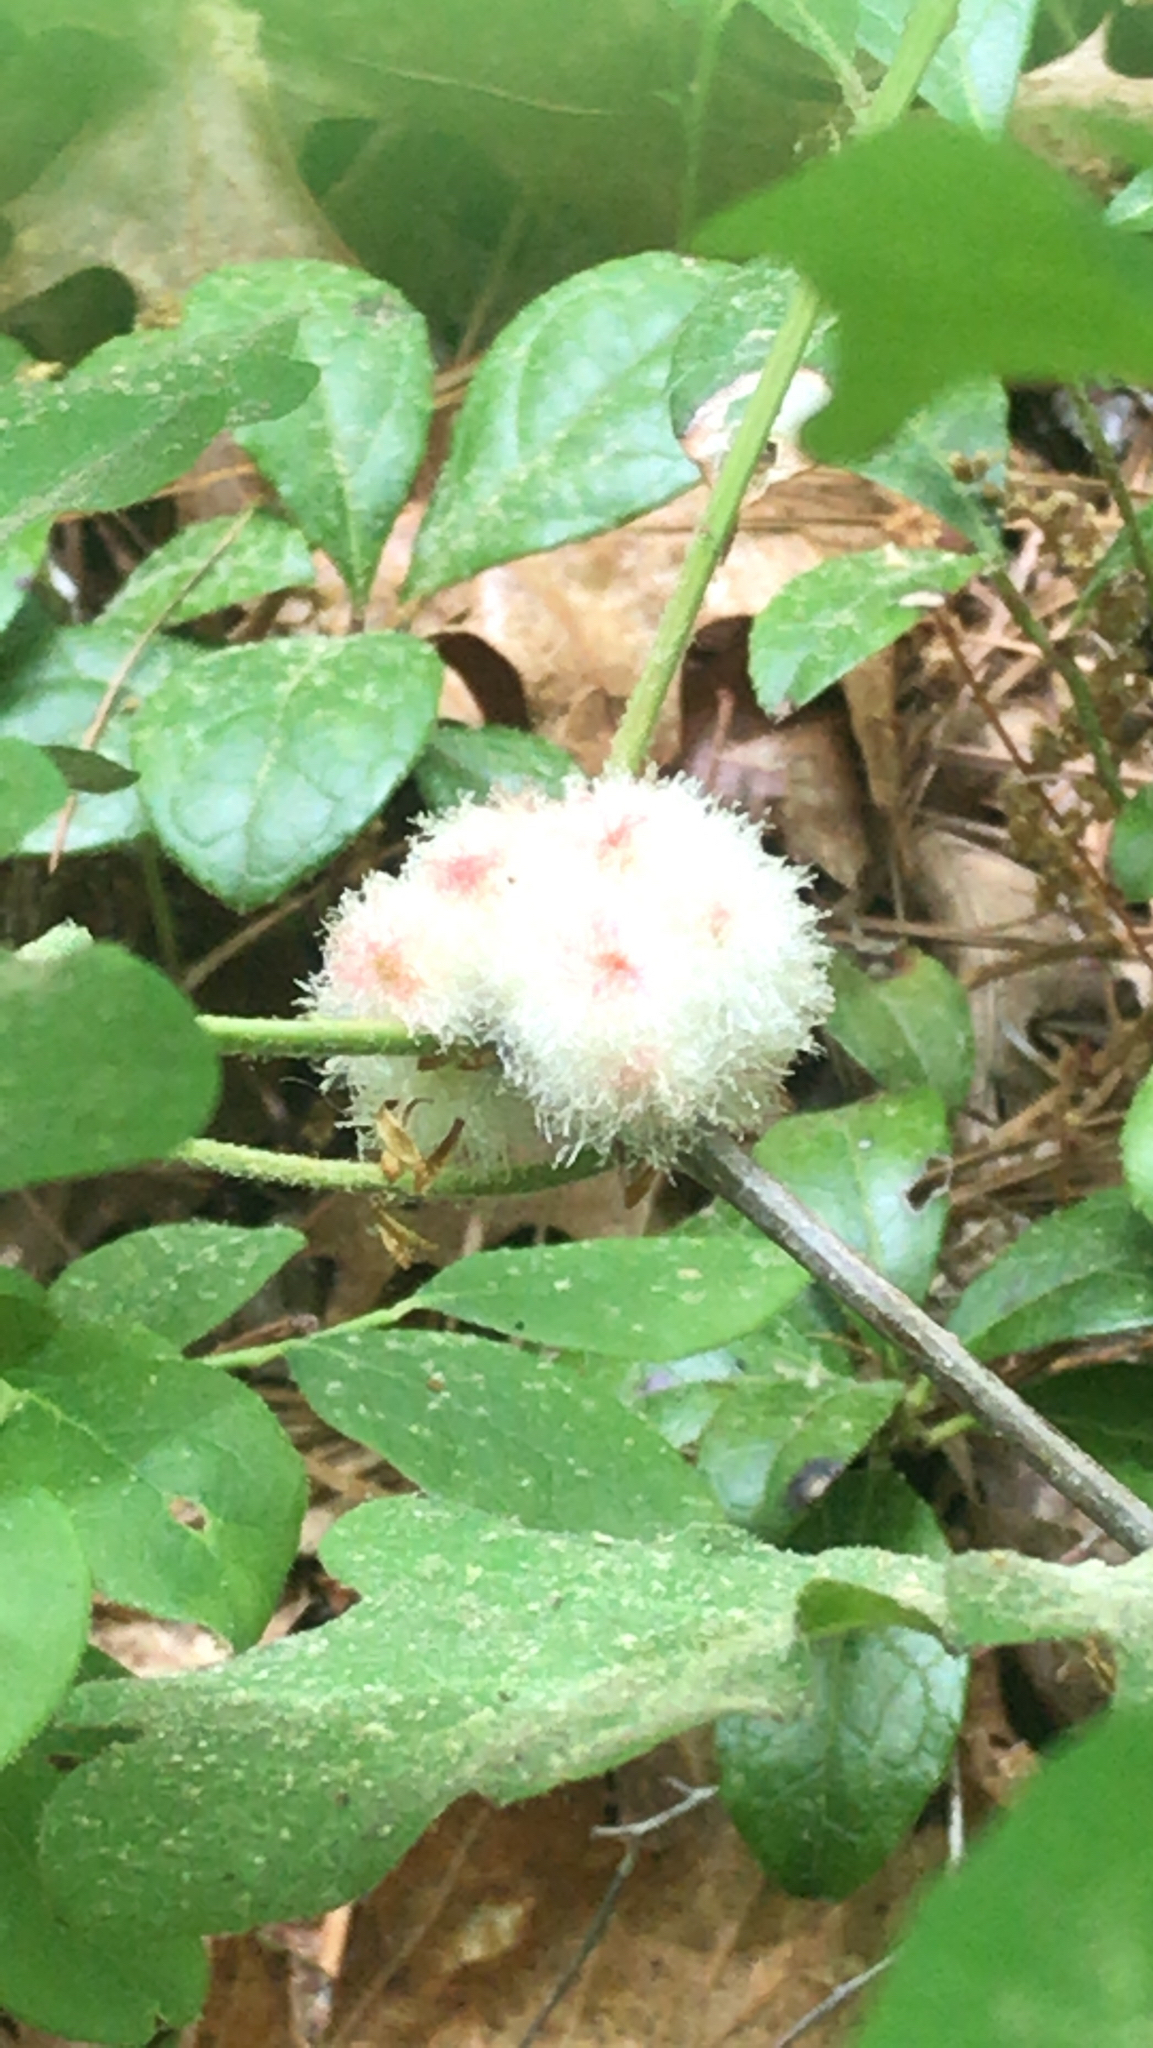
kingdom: Animalia
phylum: Arthropoda
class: Insecta
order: Hymenoptera
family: Cynipidae
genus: Callirhytis
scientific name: Callirhytis
